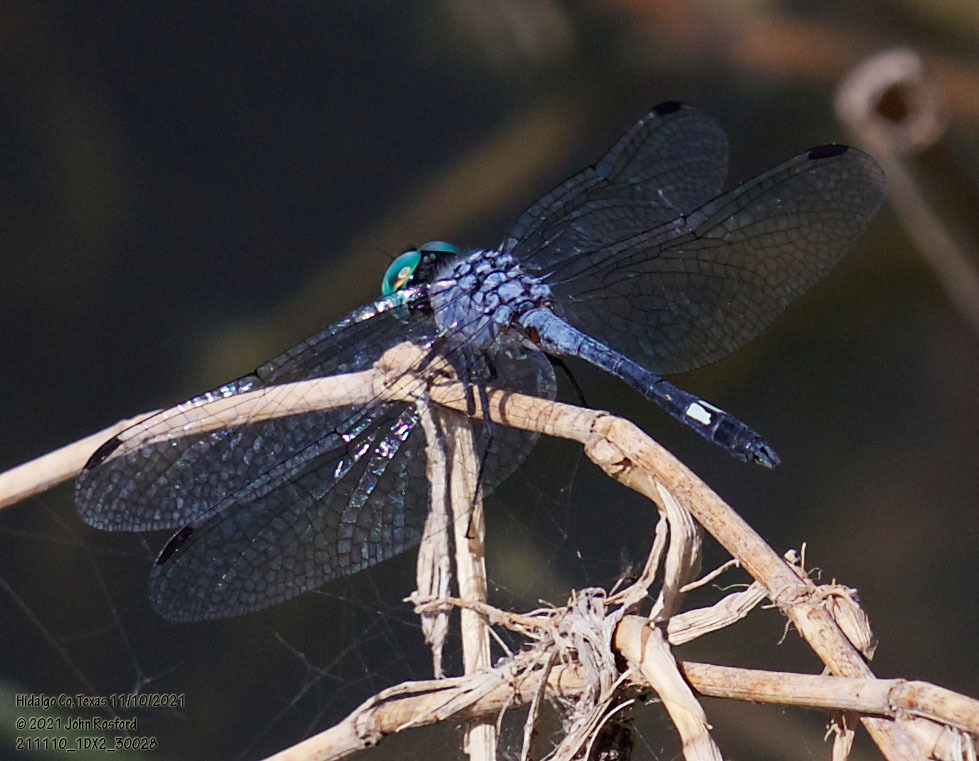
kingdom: Animalia
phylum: Arthropoda
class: Insecta
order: Odonata
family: Libellulidae
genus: Micrathyria
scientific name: Micrathyria aequalis
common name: Spot-tailed dasher
